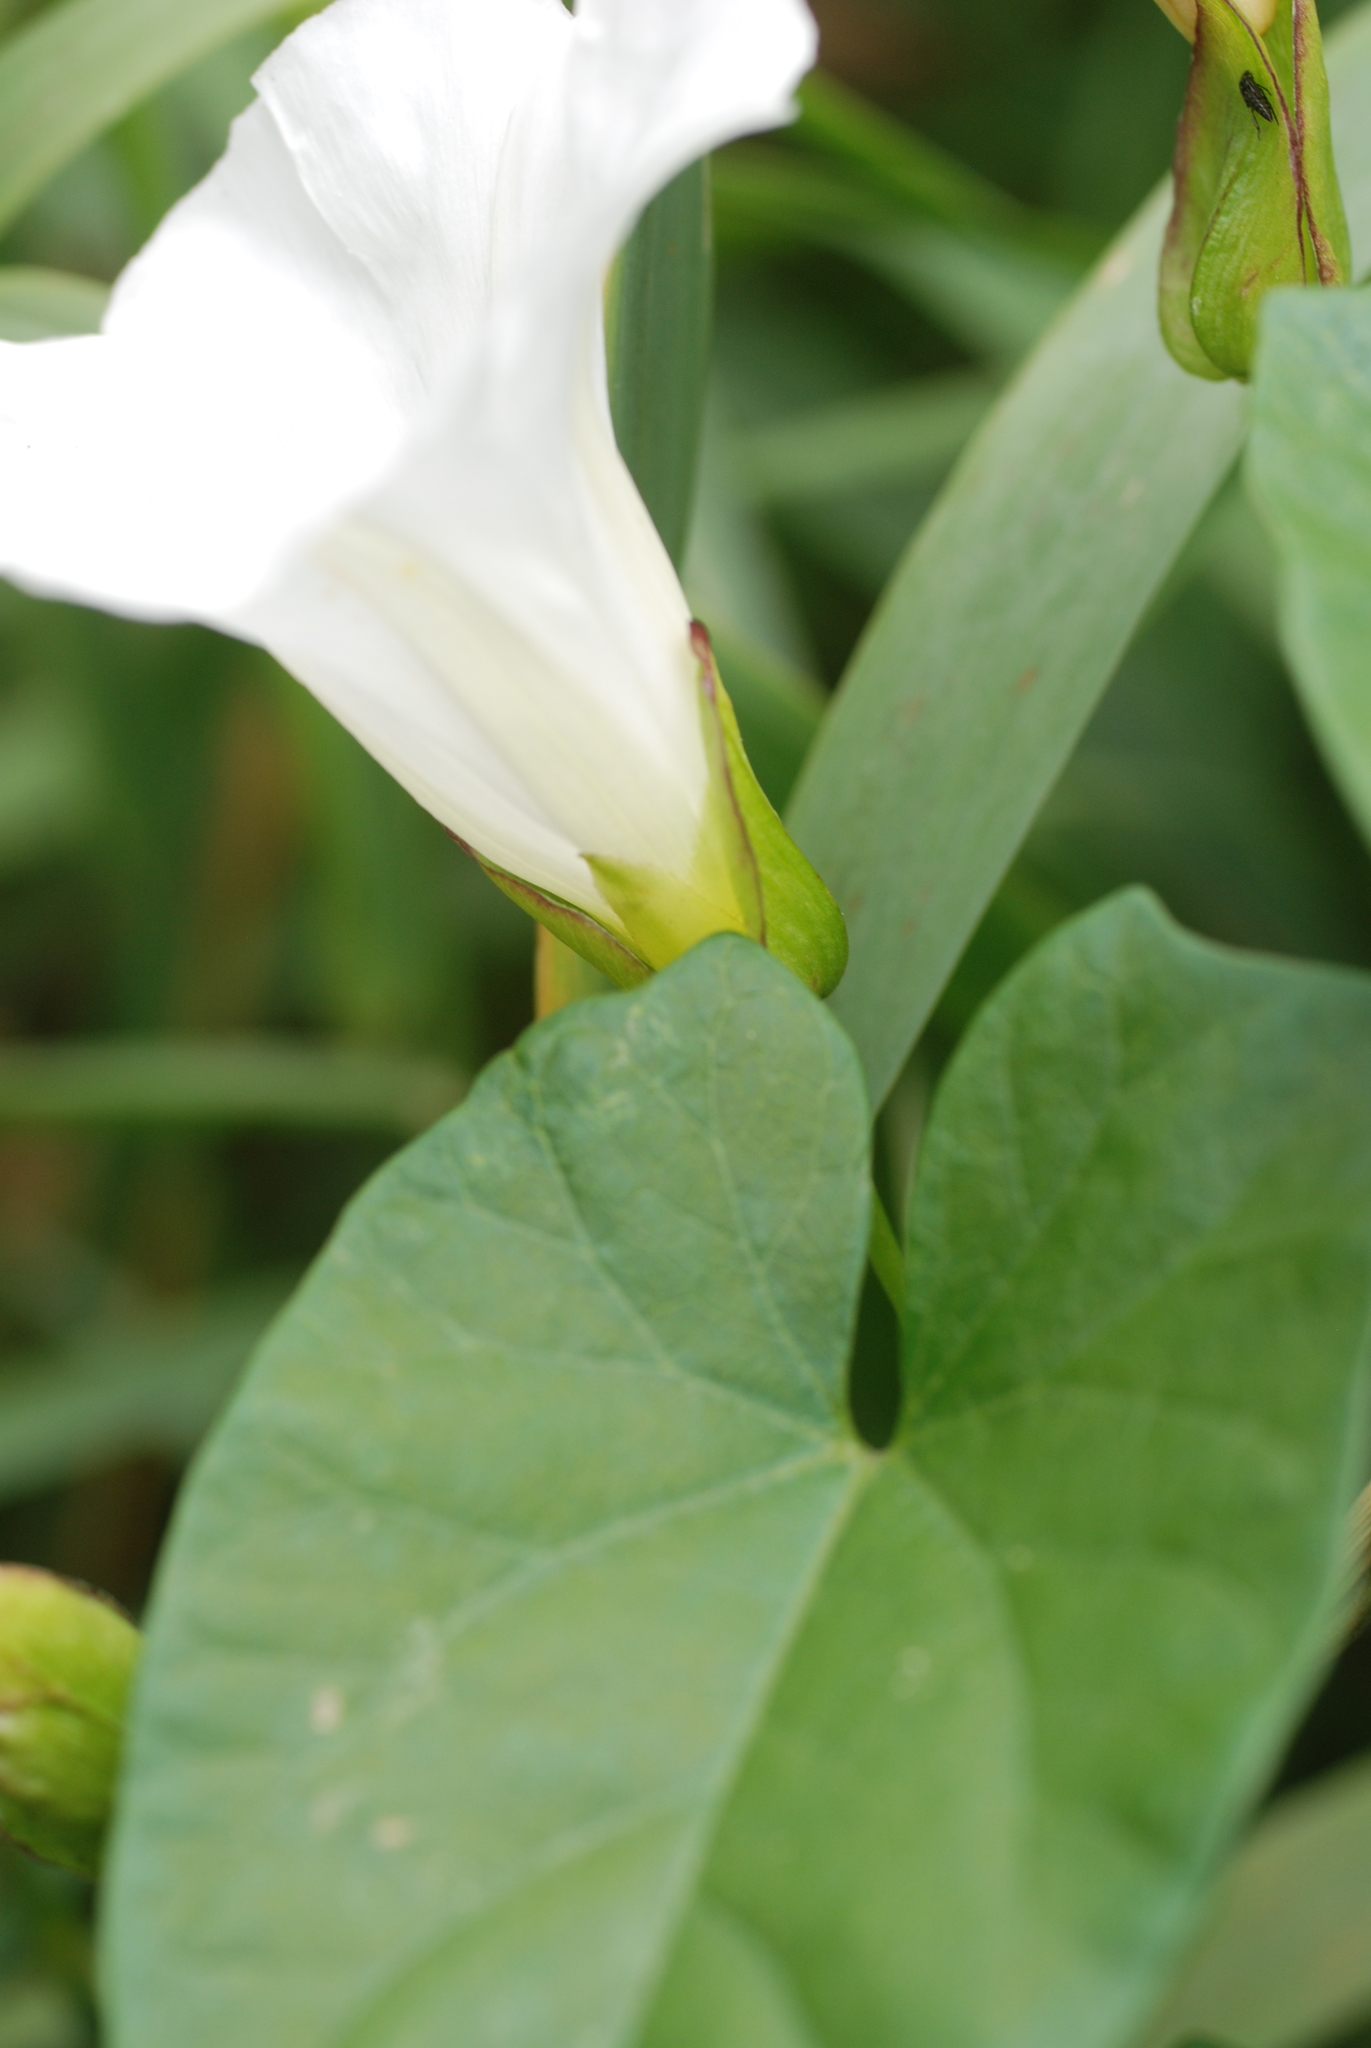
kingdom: Plantae
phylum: Tracheophyta
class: Magnoliopsida
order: Solanales
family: Convolvulaceae
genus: Calystegia
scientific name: Calystegia sepium
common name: Hedge bindweed
